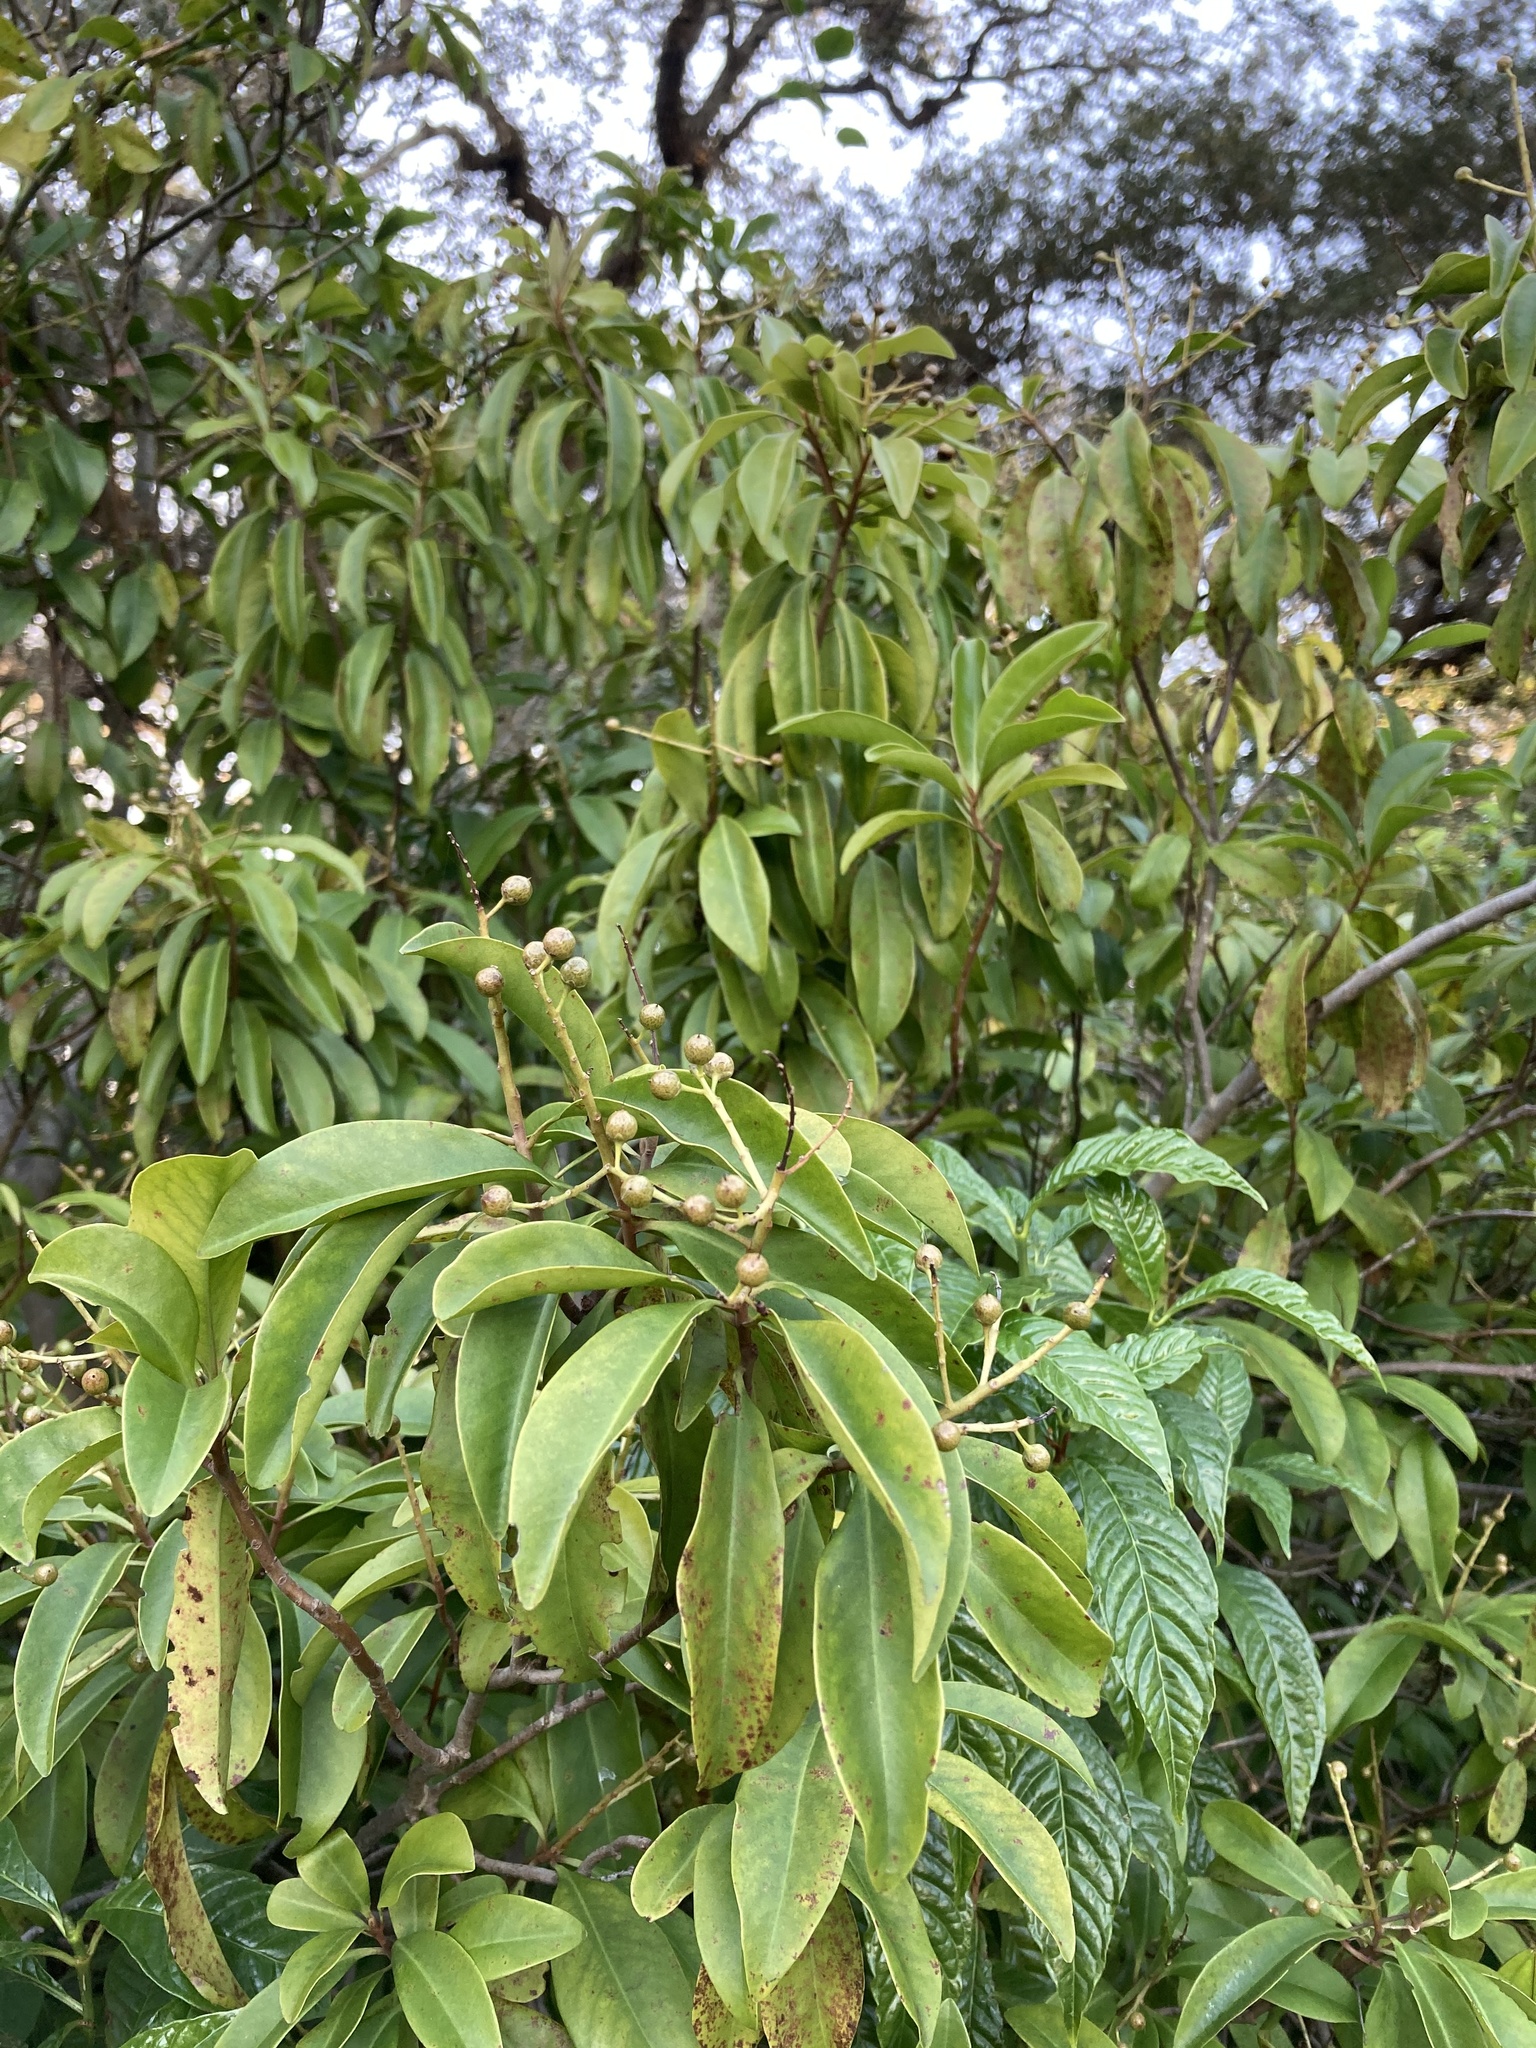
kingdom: Plantae
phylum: Tracheophyta
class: Magnoliopsida
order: Ericales
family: Primulaceae
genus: Ardisia
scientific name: Ardisia escallonioides
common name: Island marlberry
